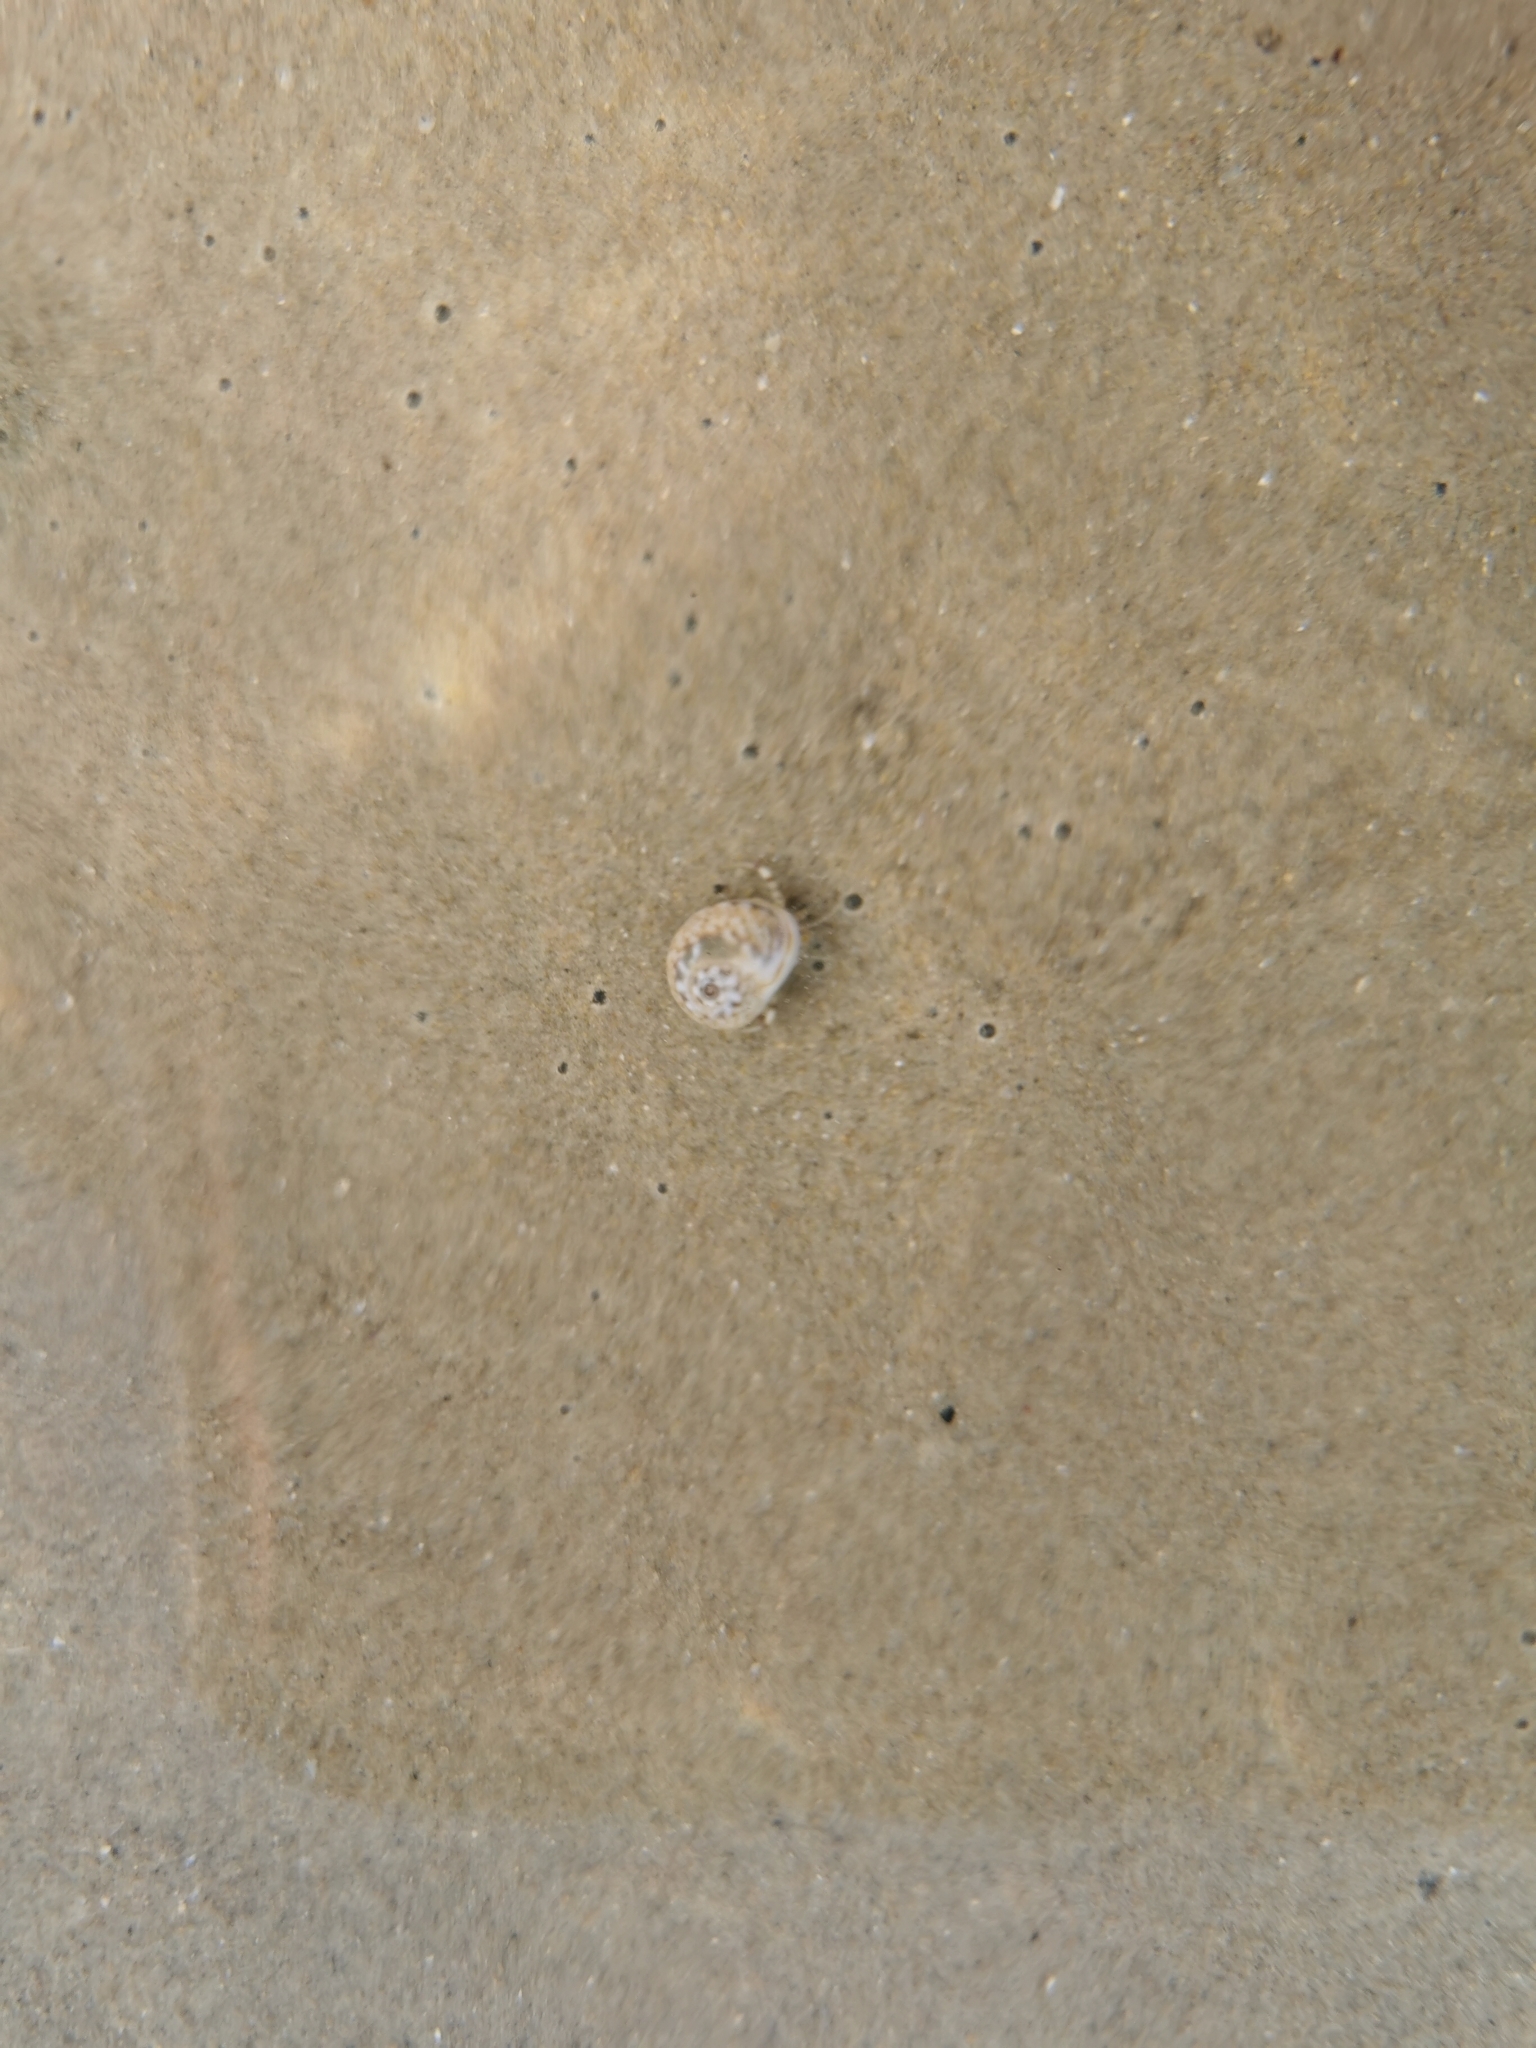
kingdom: Animalia
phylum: Arthropoda
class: Malacostraca
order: Decapoda
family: Diogenidae
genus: Diogenes
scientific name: Diogenes pugilator
